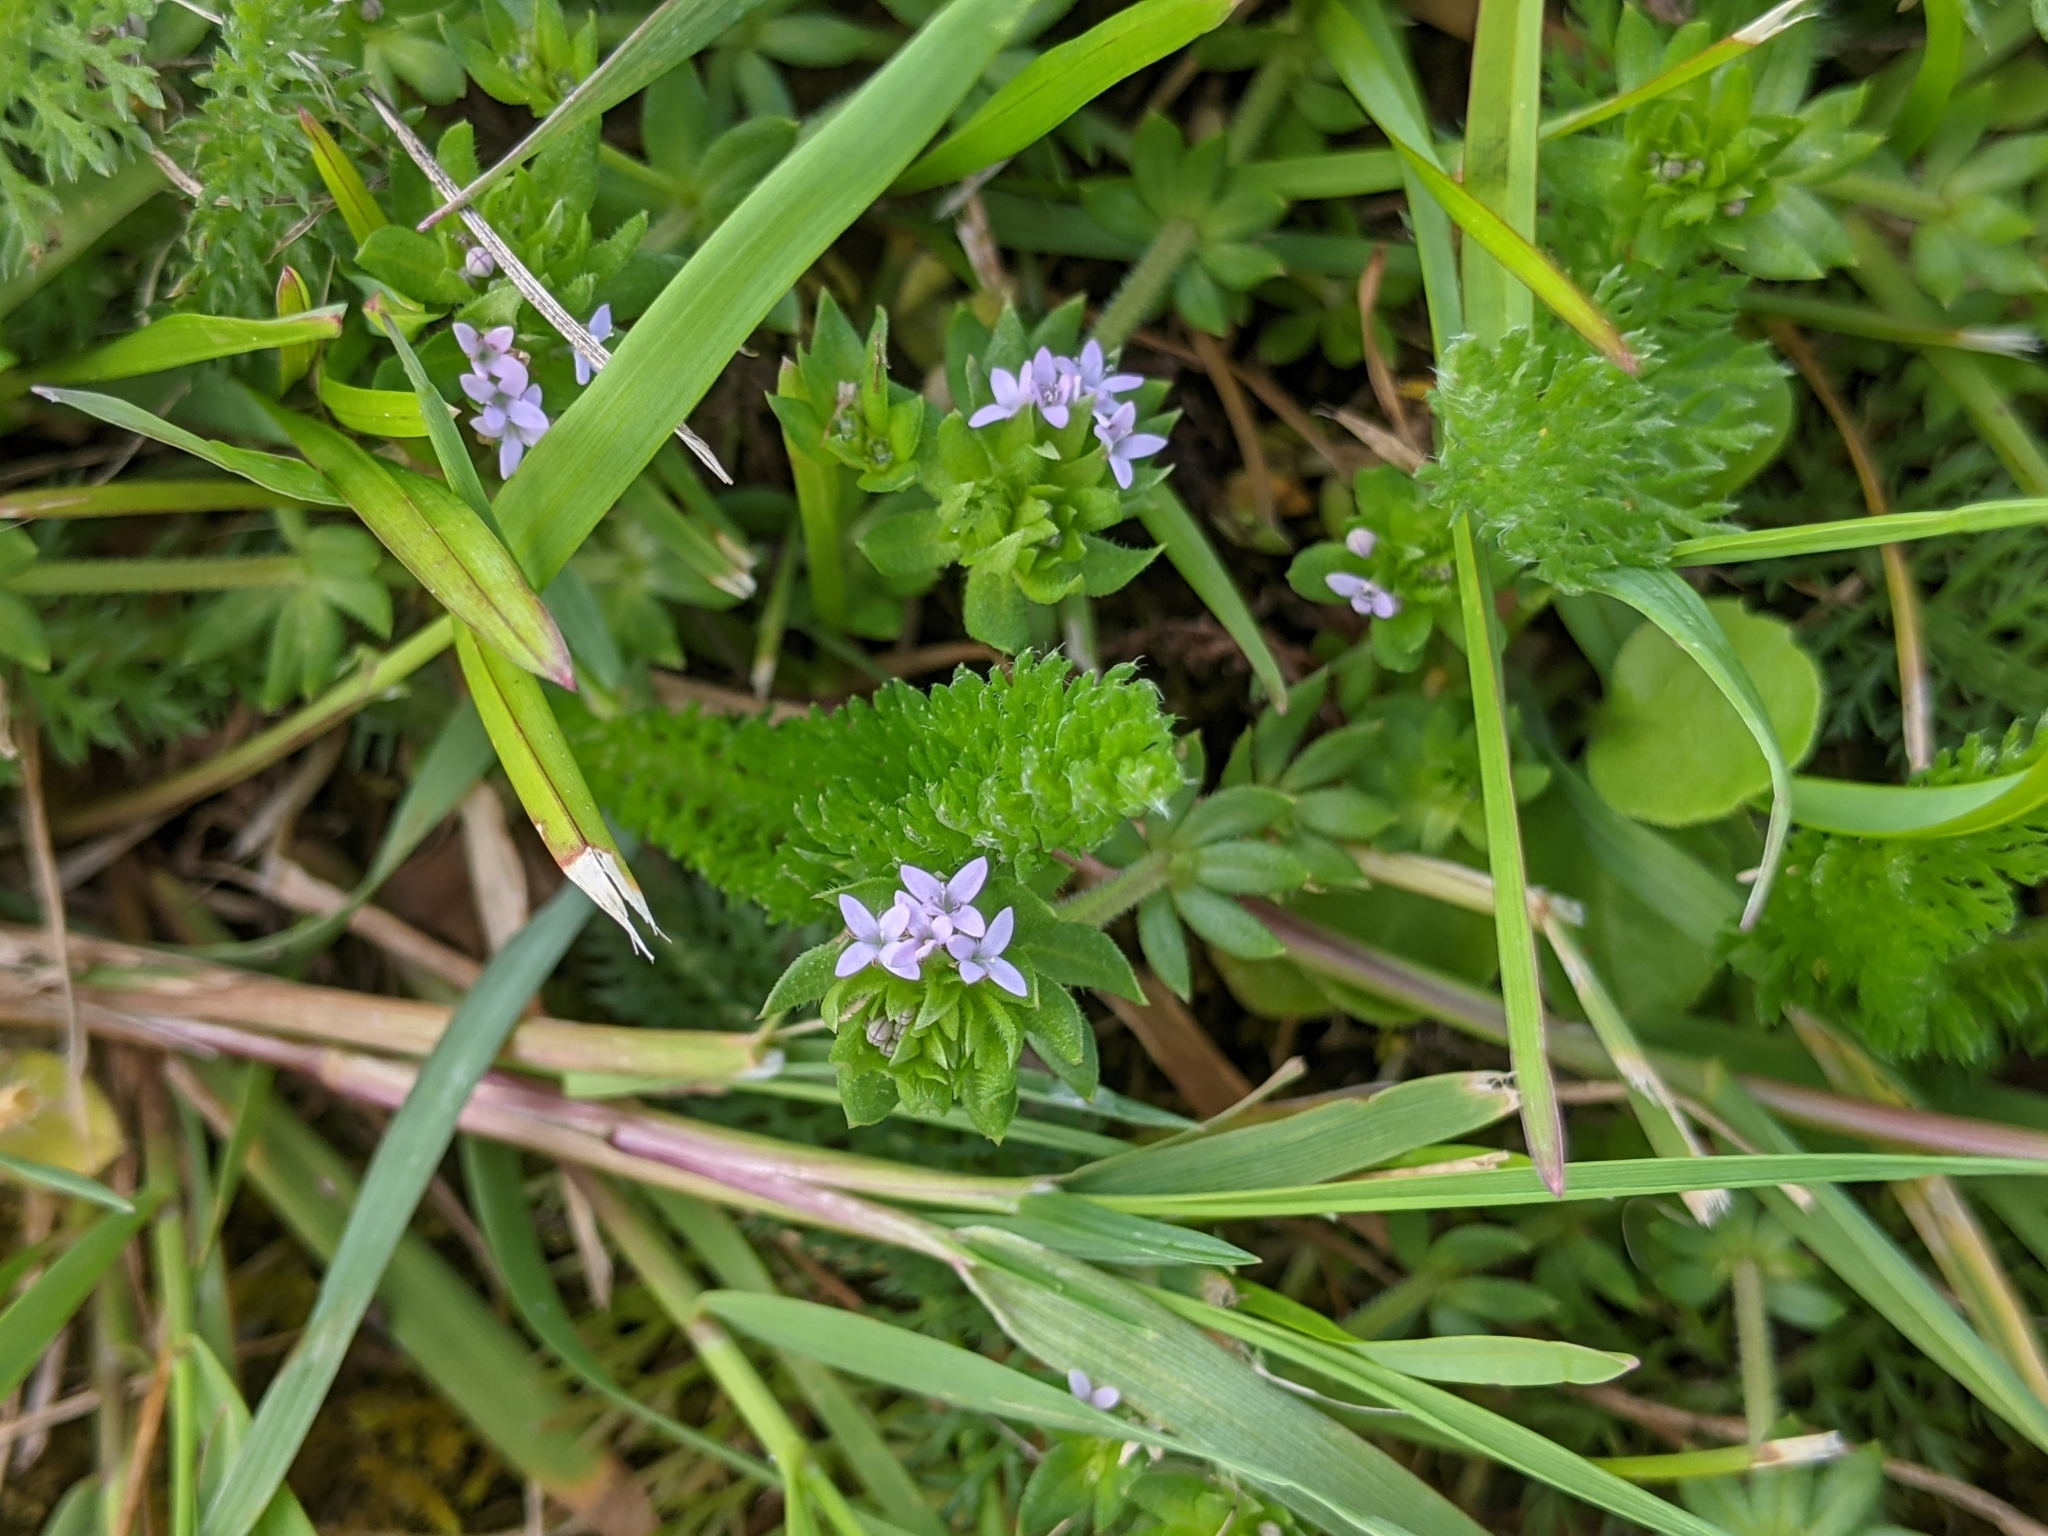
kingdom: Plantae
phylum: Tracheophyta
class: Magnoliopsida
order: Gentianales
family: Rubiaceae
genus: Sherardia
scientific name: Sherardia arvensis
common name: Field madder
